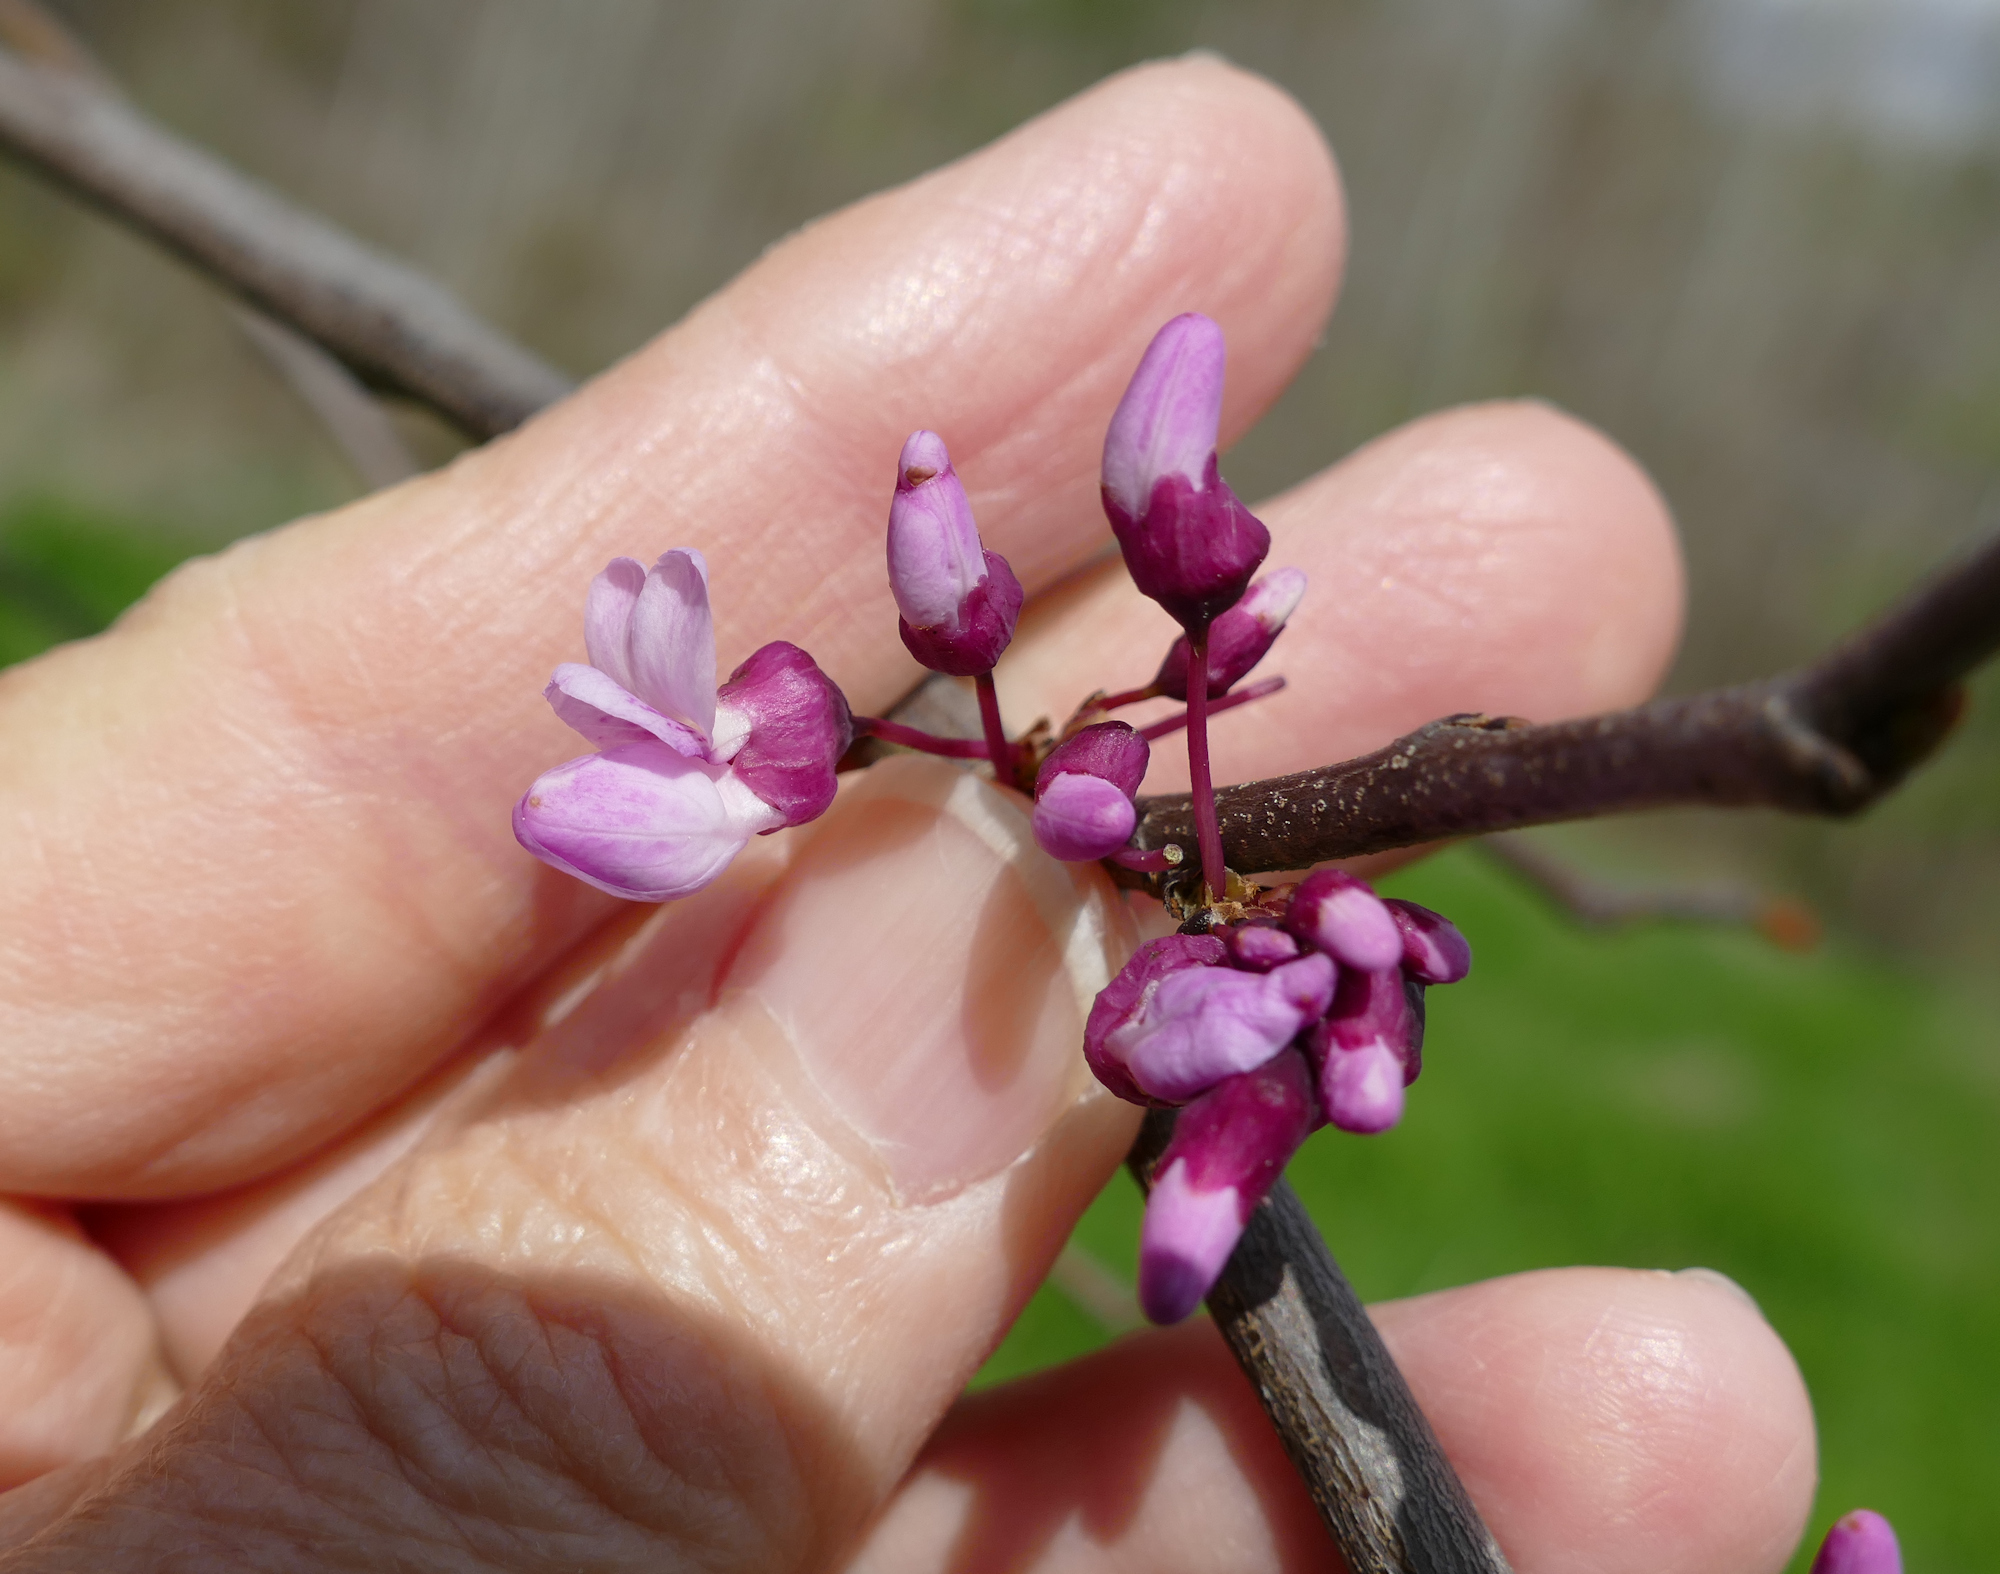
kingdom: Plantae
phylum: Tracheophyta
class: Magnoliopsida
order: Fabales
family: Fabaceae
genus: Cercis
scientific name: Cercis canadensis
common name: Eastern redbud
